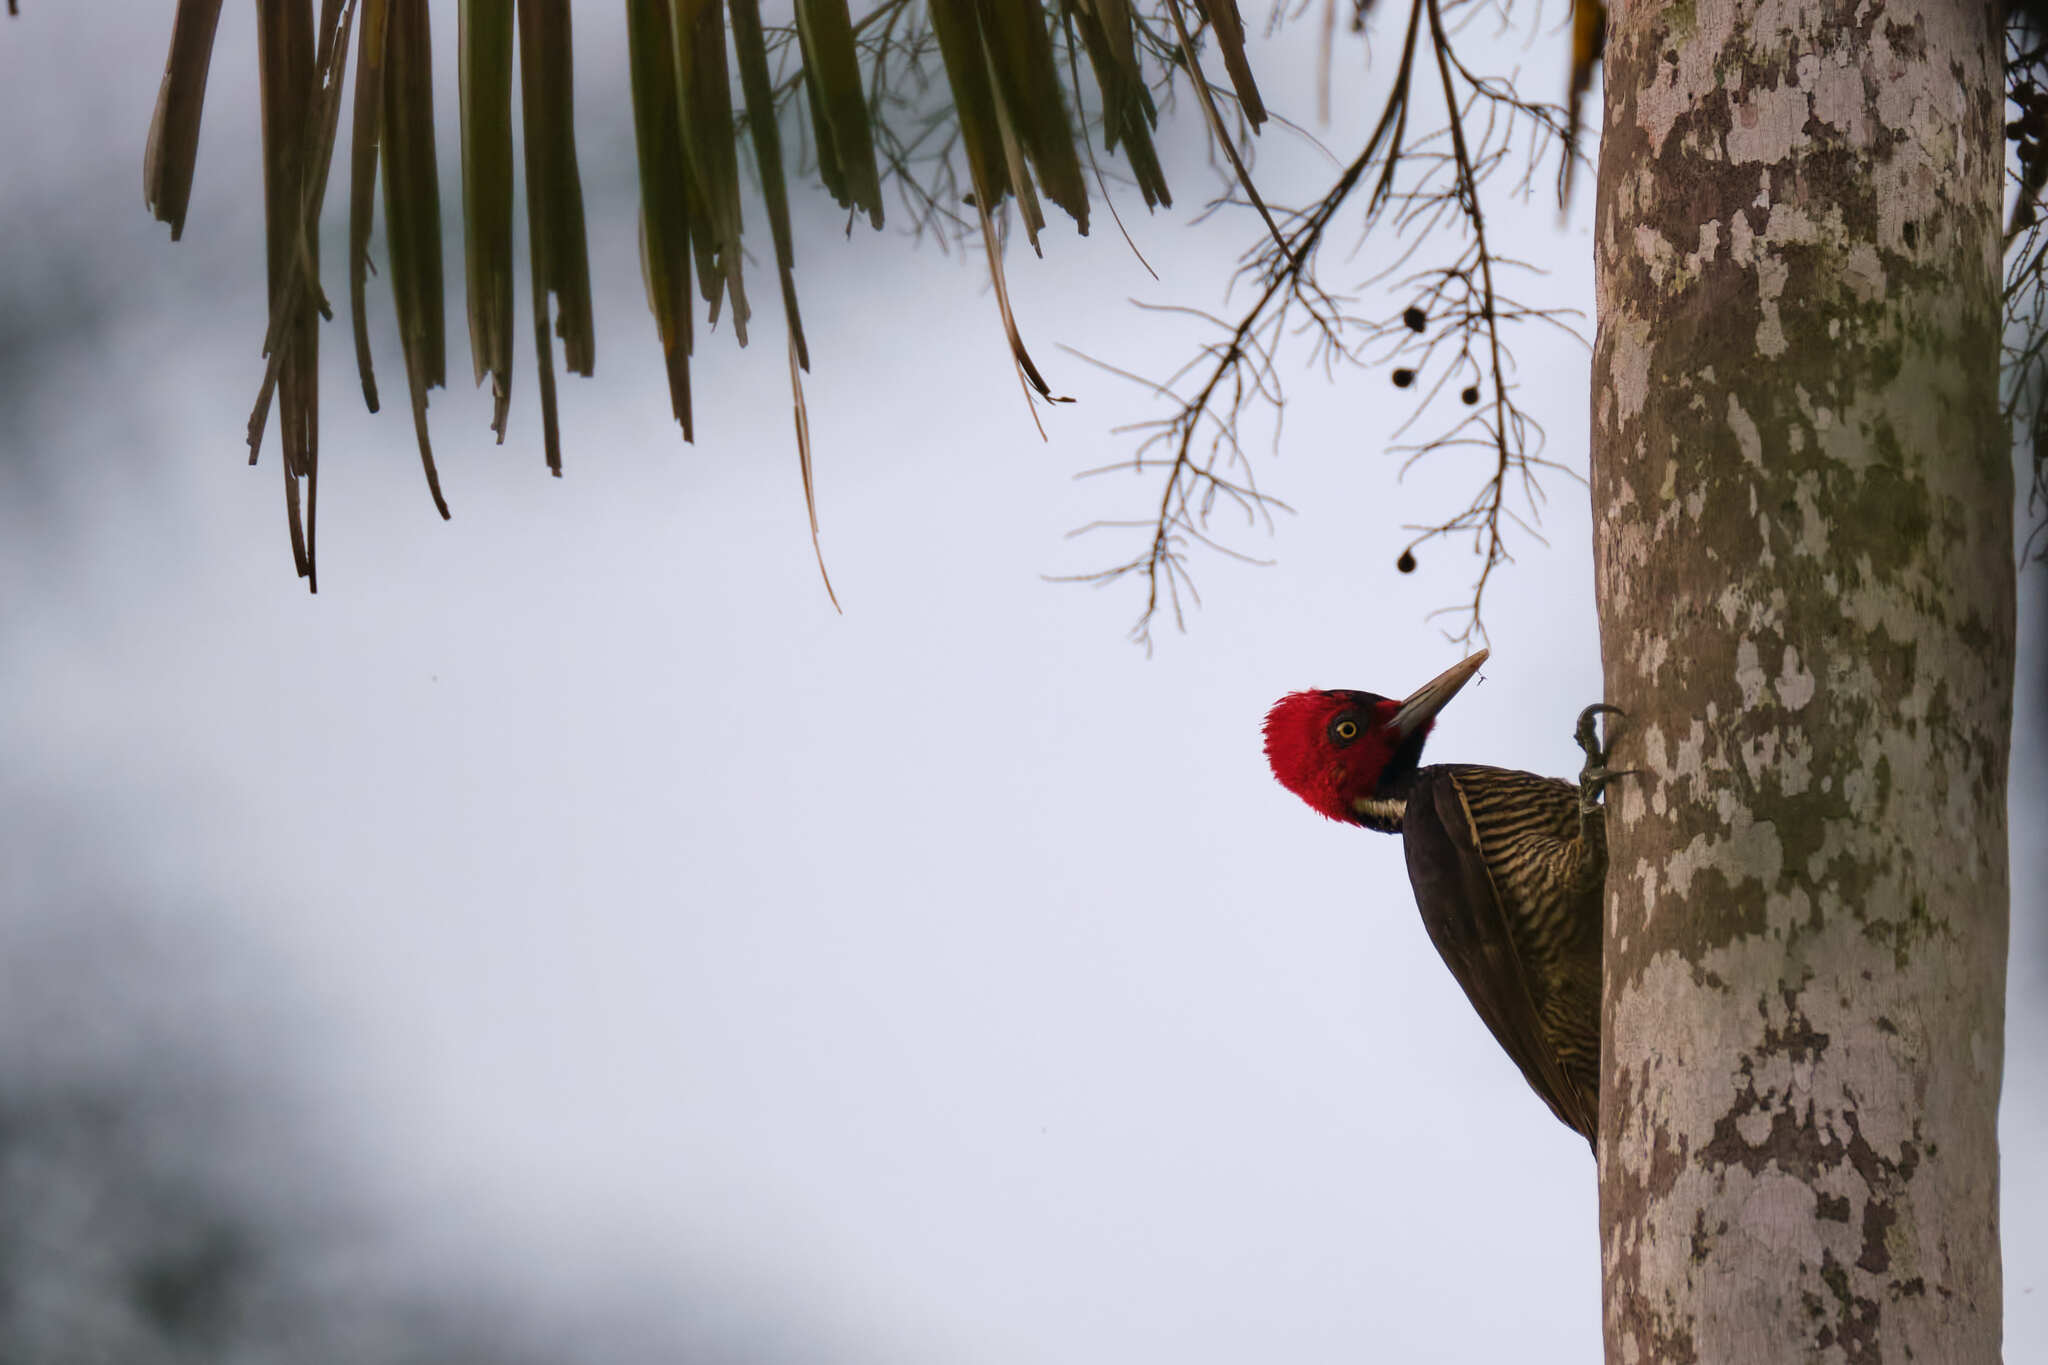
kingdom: Animalia
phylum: Chordata
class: Aves
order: Piciformes
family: Picidae
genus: Campephilus
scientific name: Campephilus guatemalensis
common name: Pale-billed woodpecker
